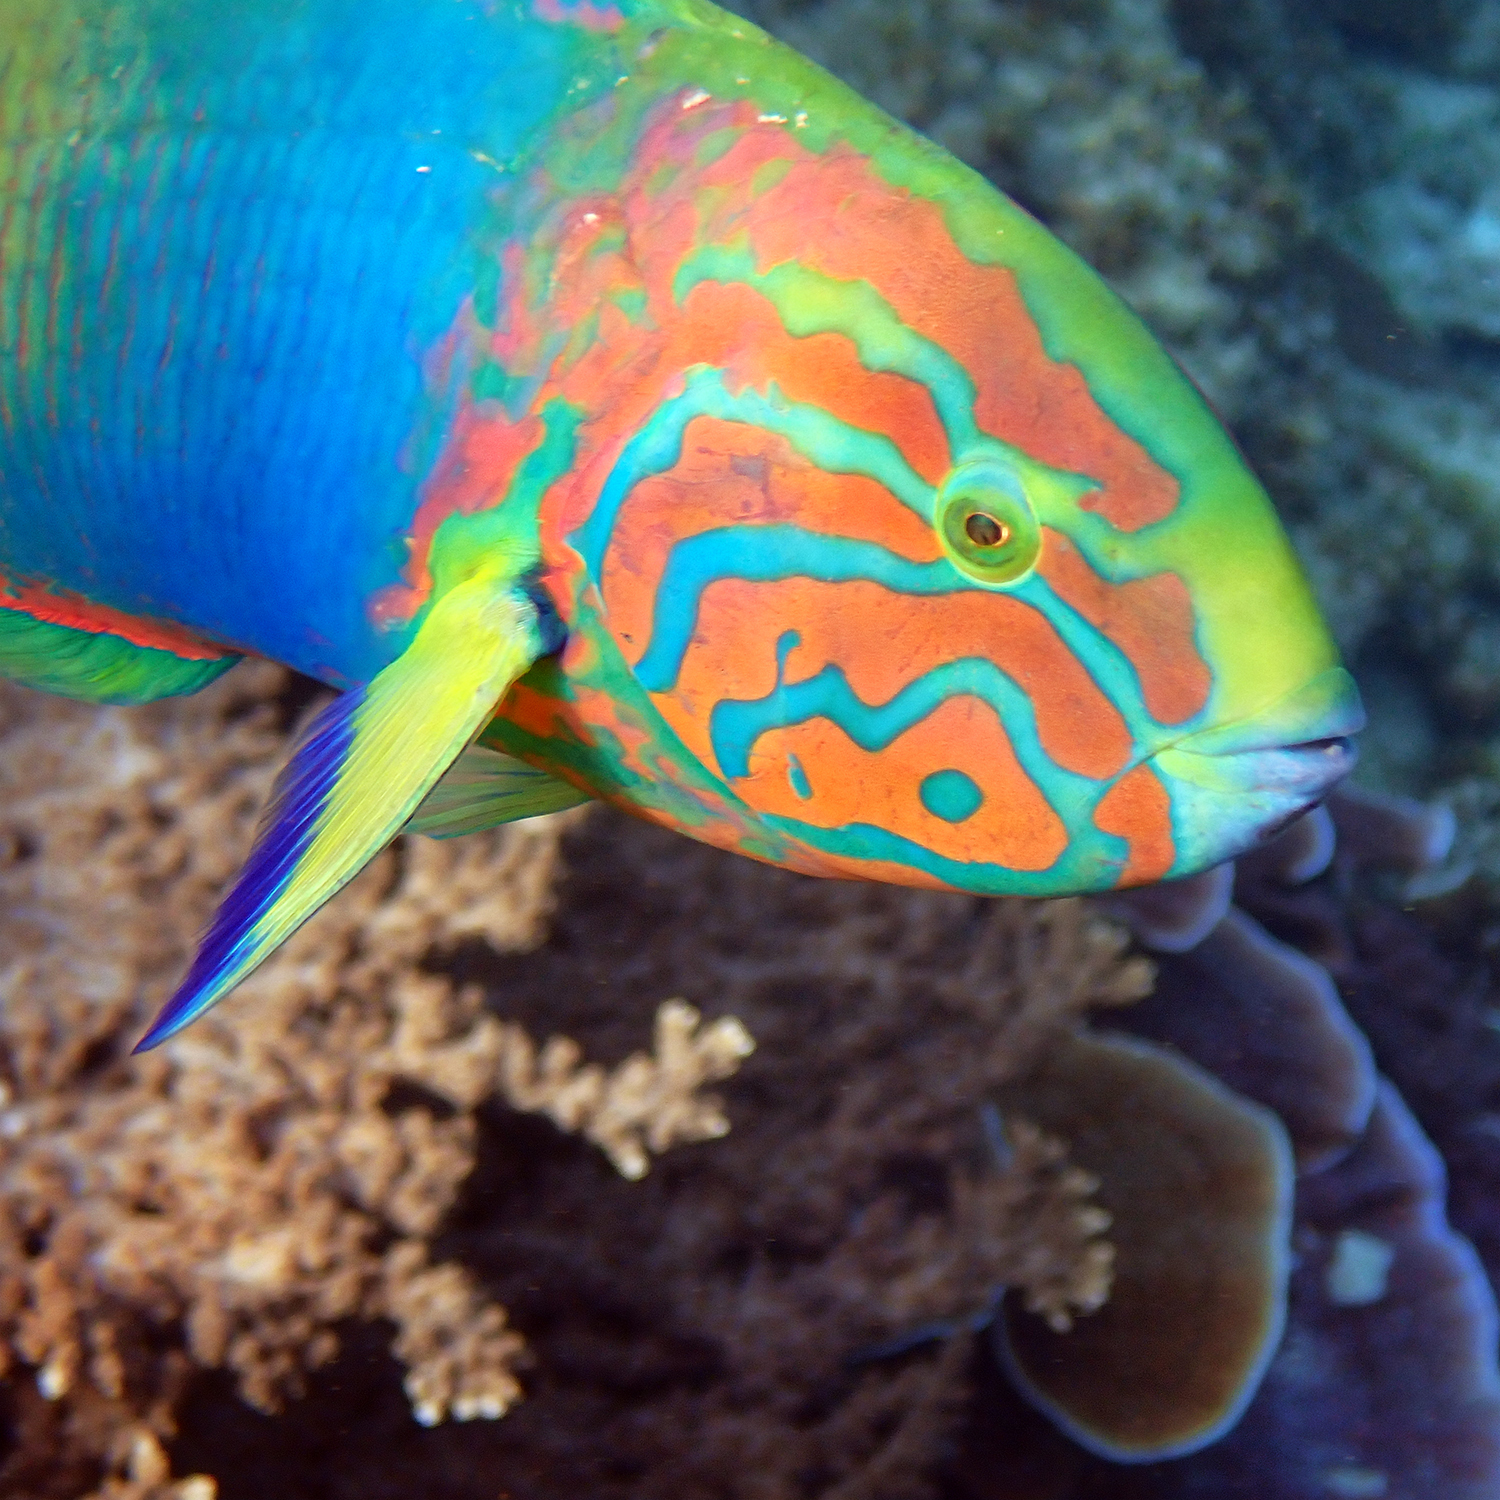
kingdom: Animalia
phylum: Chordata
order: Perciformes
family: Labridae
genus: Thalassoma
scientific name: Thalassoma lutescens
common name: Green moon wrasse
